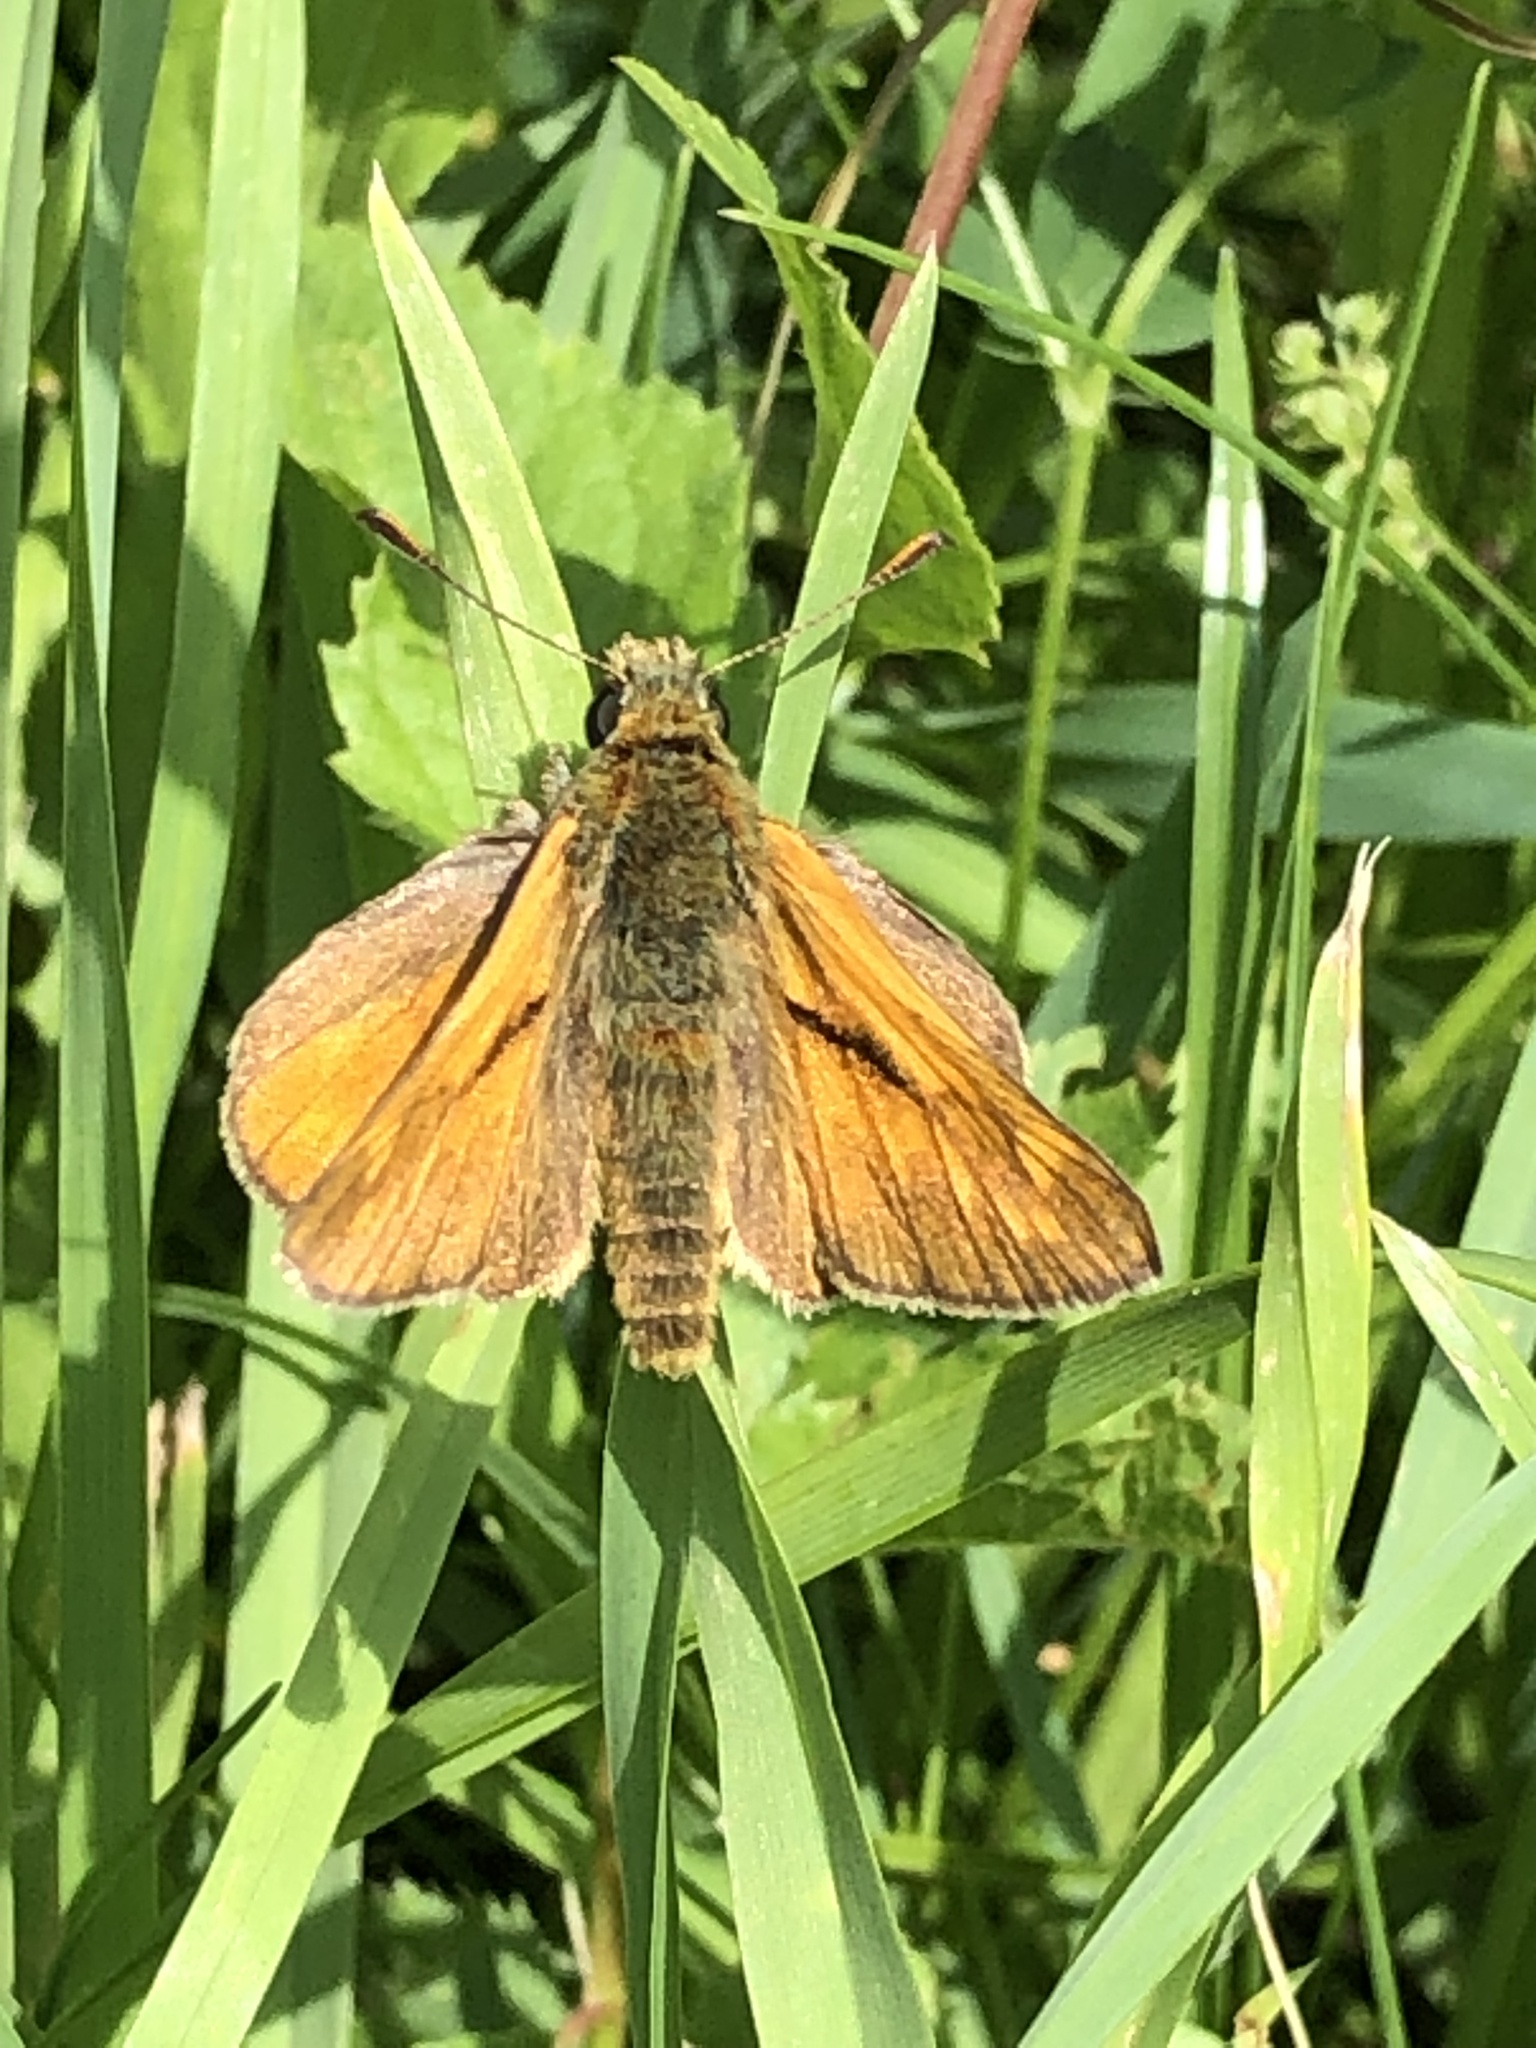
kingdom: Animalia
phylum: Arthropoda
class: Insecta
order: Lepidoptera
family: Hesperiidae
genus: Ochlodes
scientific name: Ochlodes venata
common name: Large skipper
